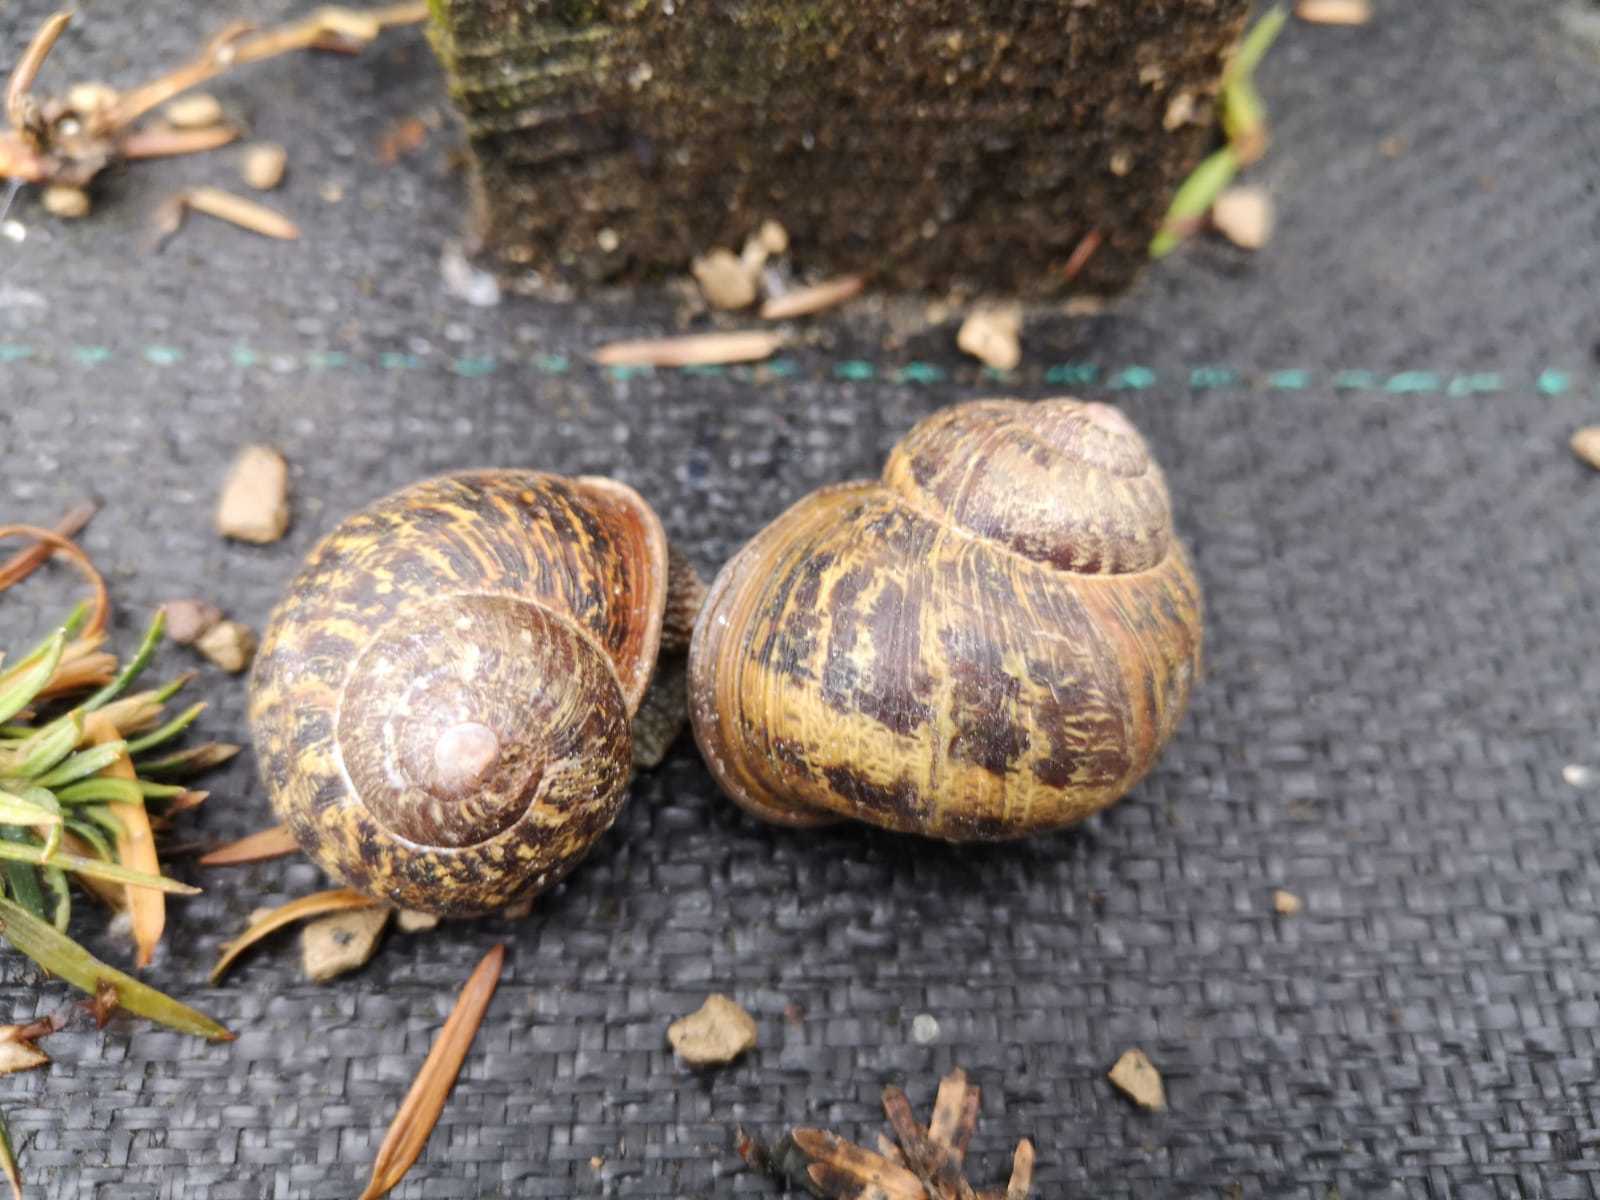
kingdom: Animalia
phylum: Mollusca
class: Gastropoda
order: Stylommatophora
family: Helicidae
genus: Cornu
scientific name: Cornu aspersum
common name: Brown garden snail
